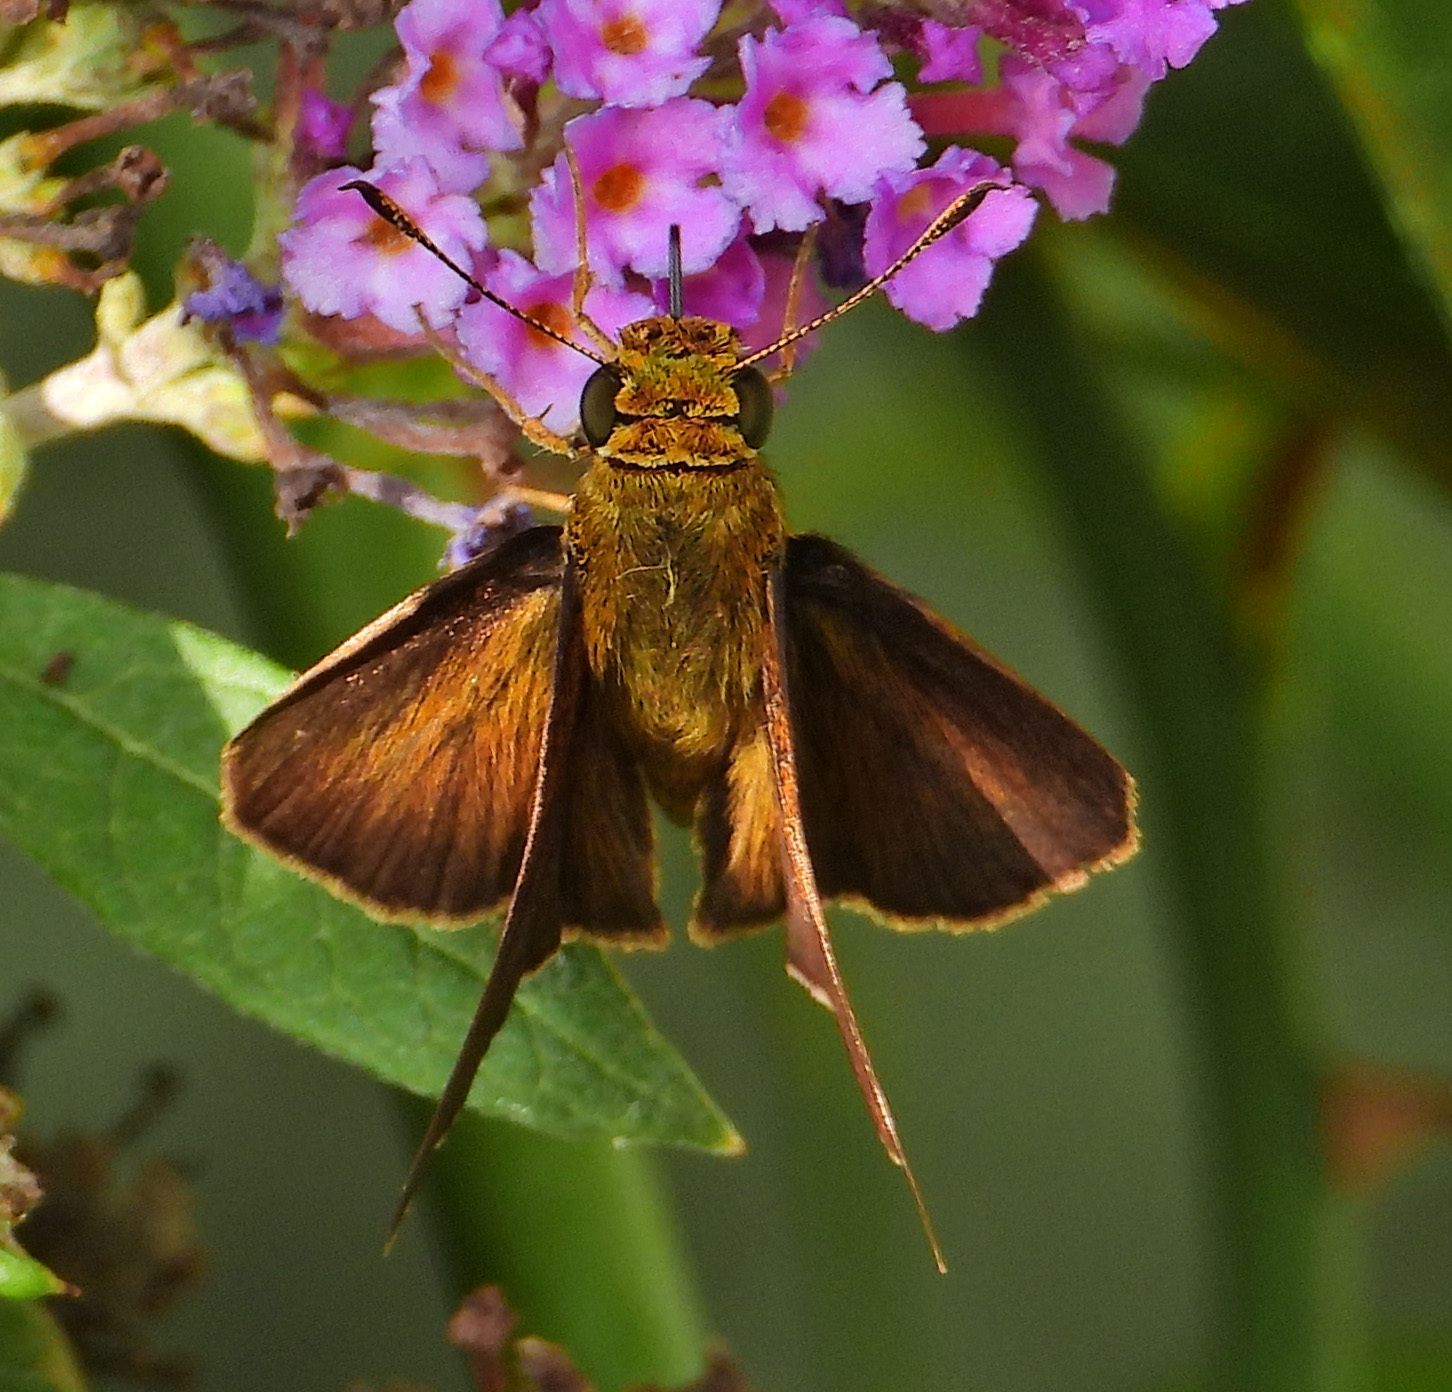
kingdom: Animalia
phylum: Arthropoda
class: Insecta
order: Lepidoptera
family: Hesperiidae
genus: Euphyes
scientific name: Euphyes vestris
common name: Dun skipper
